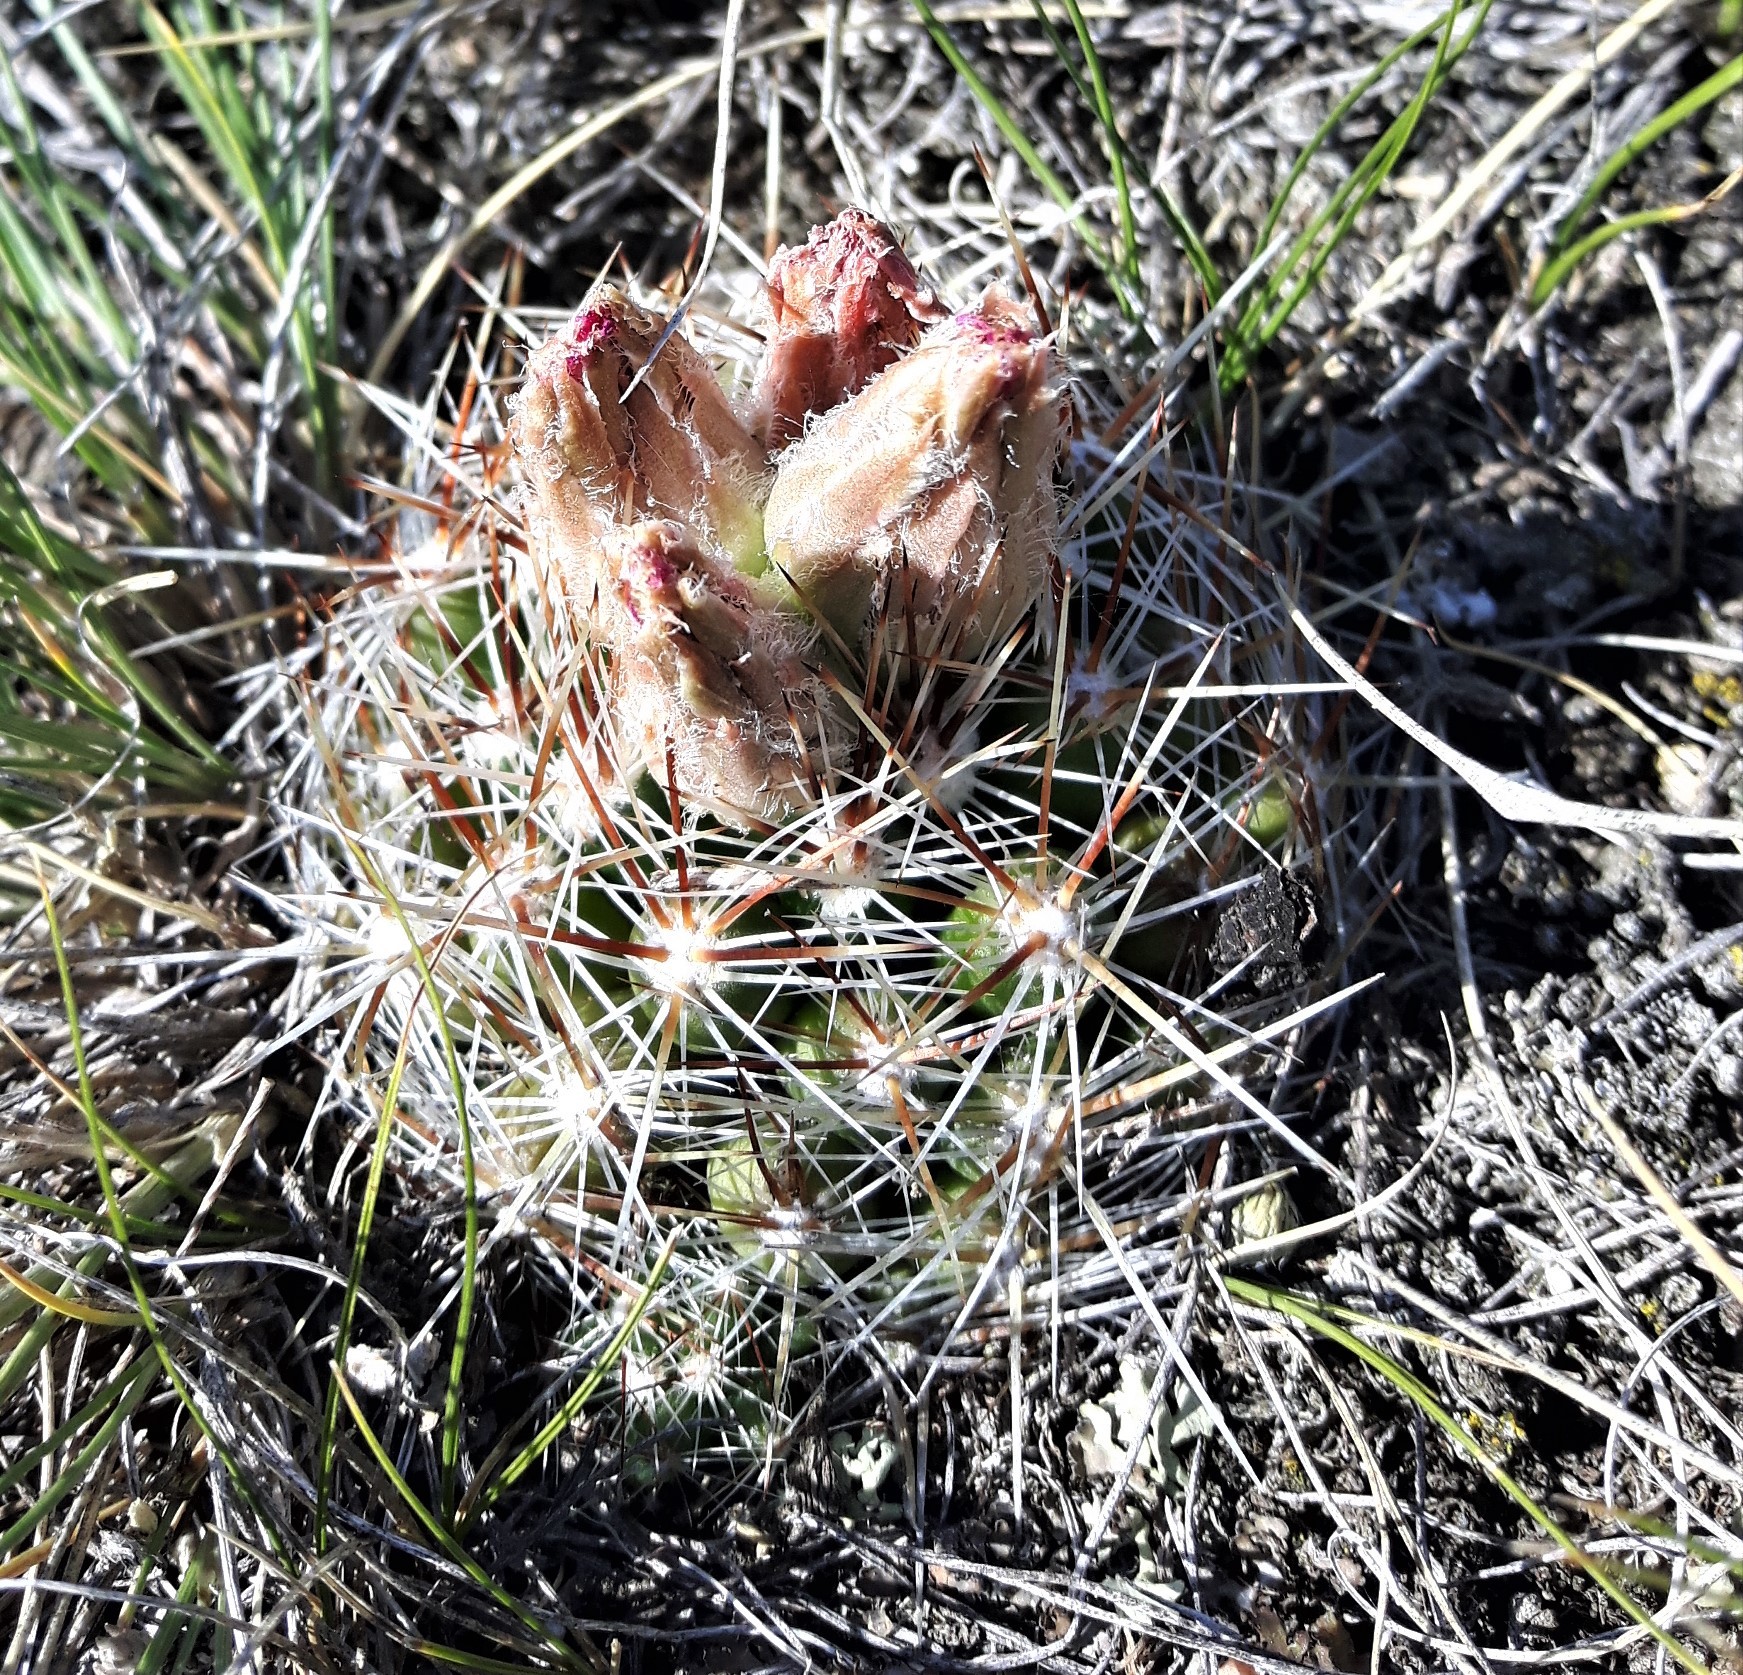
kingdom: Plantae
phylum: Tracheophyta
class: Magnoliopsida
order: Caryophyllales
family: Cactaceae
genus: Pelecyphora
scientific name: Pelecyphora vivipara
